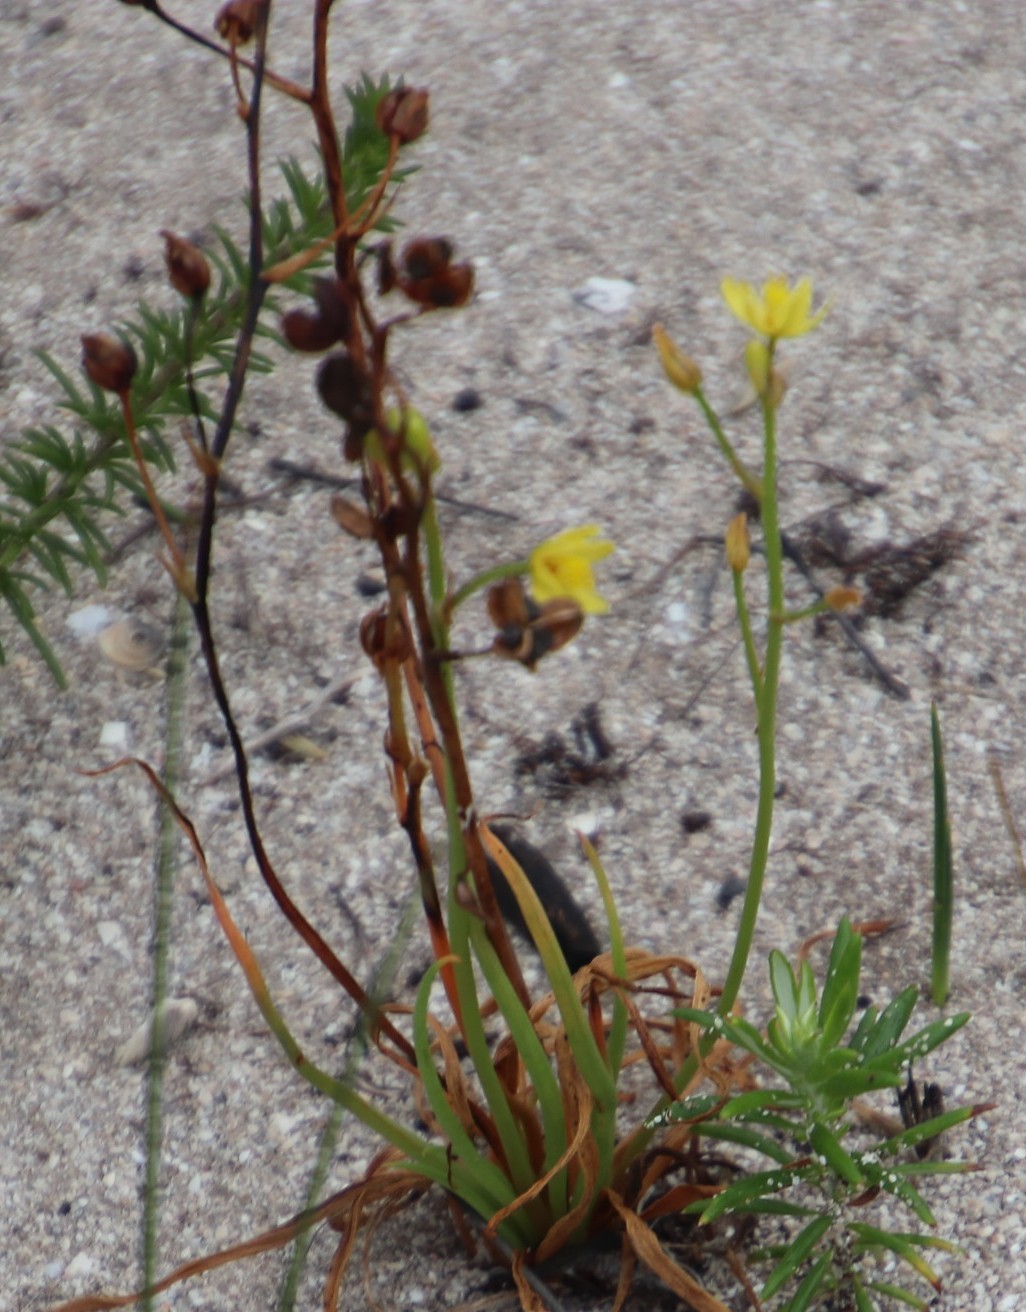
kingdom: Plantae
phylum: Tracheophyta
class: Liliopsida
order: Asparagales
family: Asphodelaceae
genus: Bulbine
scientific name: Bulbine annua
